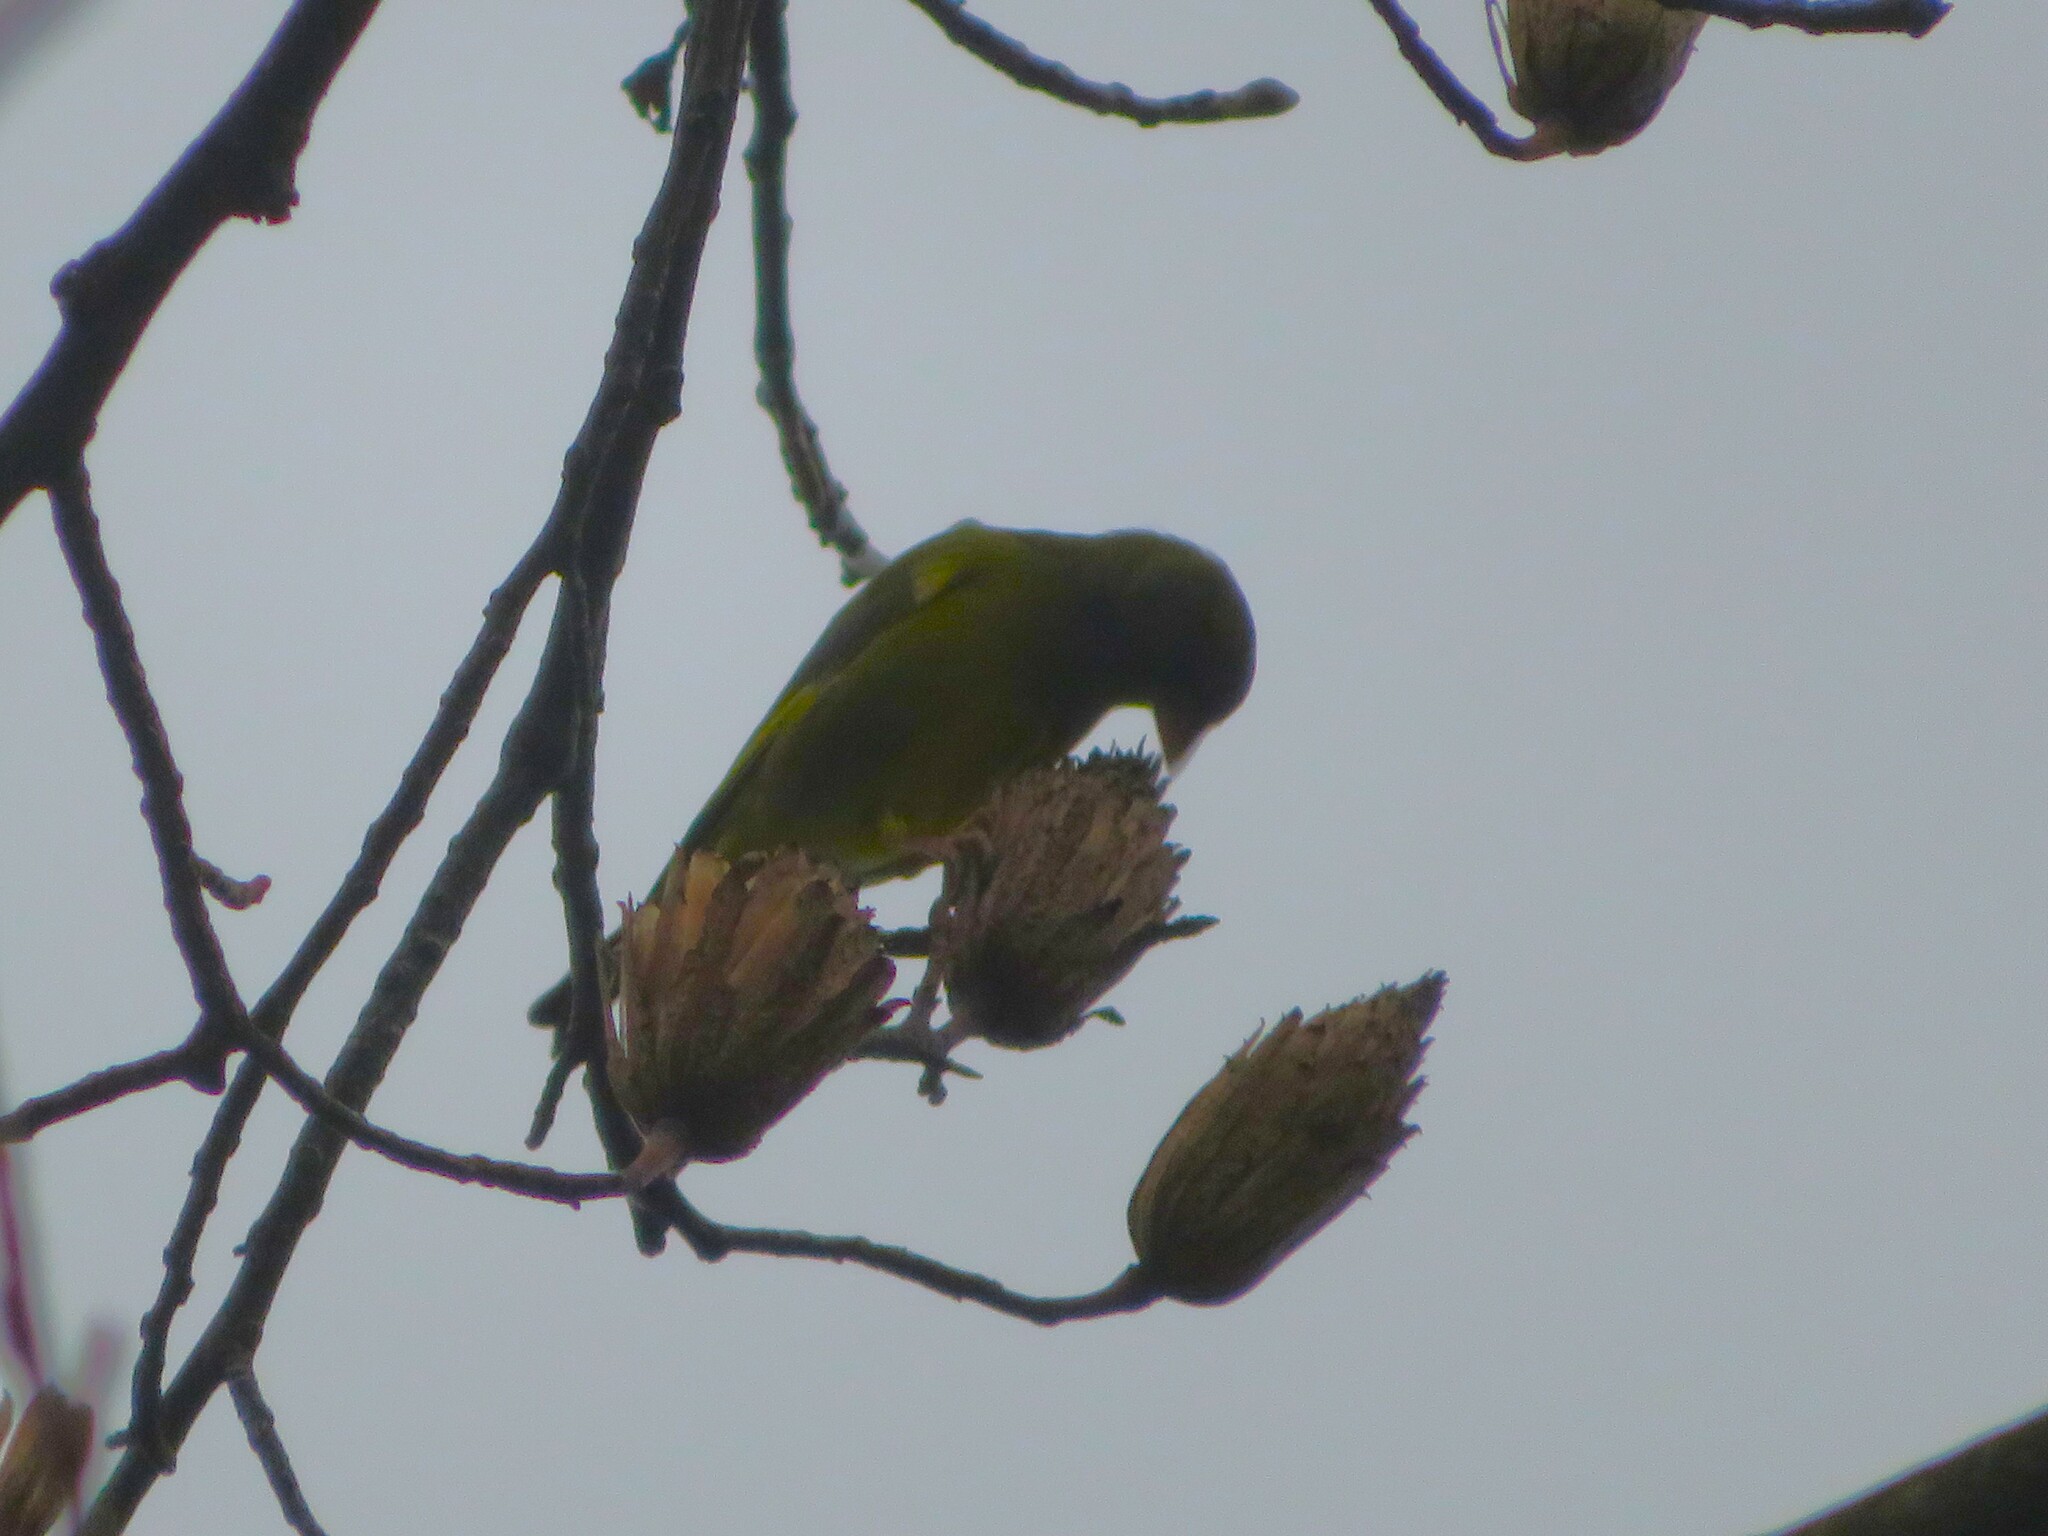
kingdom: Plantae
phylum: Tracheophyta
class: Liliopsida
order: Poales
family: Poaceae
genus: Chloris
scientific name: Chloris chloris
